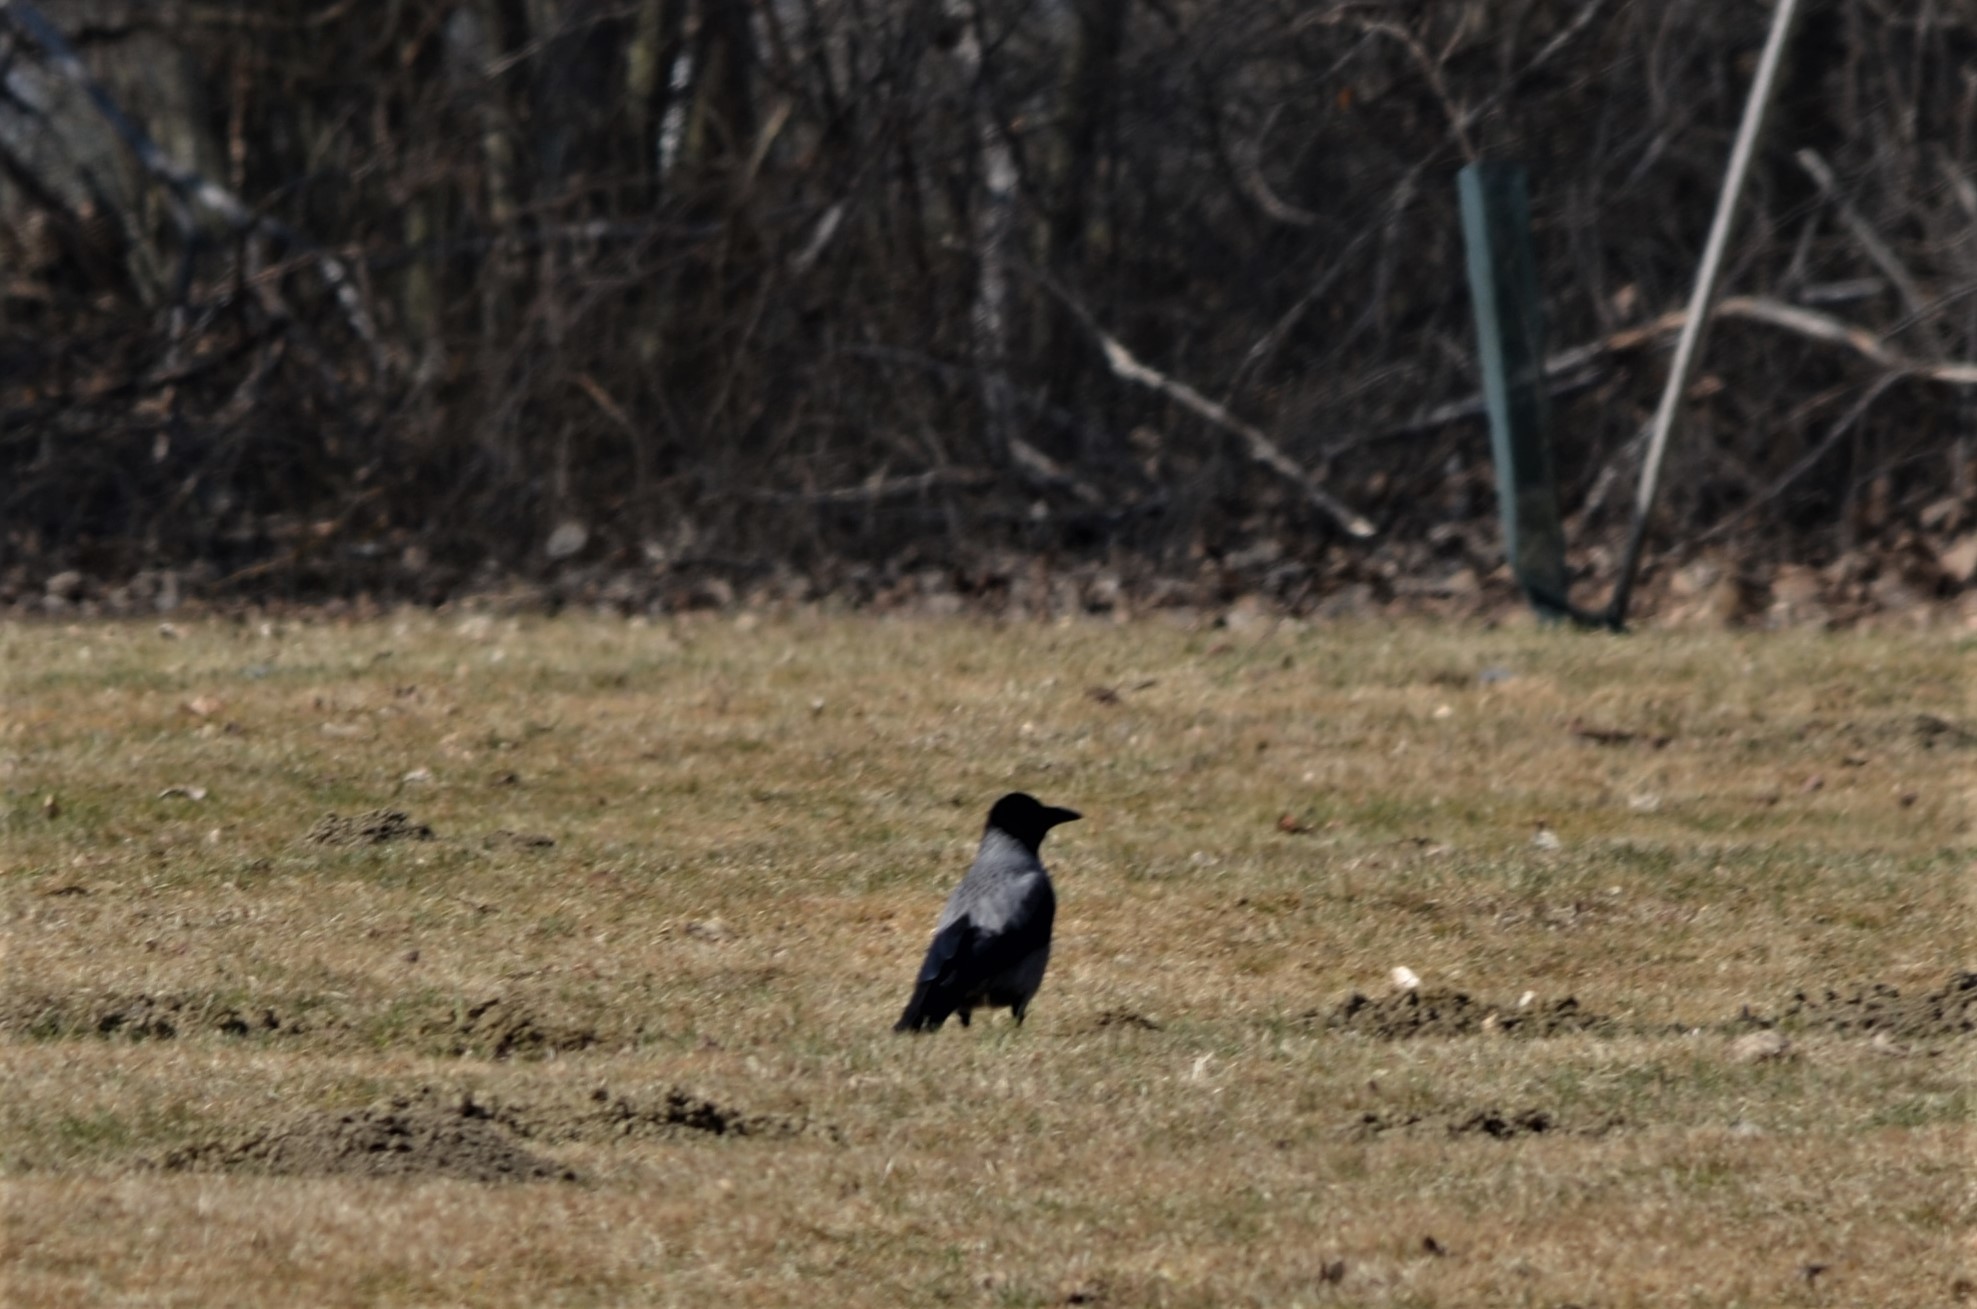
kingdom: Animalia
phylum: Chordata
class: Aves
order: Passeriformes
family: Corvidae
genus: Corvus
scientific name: Corvus cornix
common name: Hooded crow
